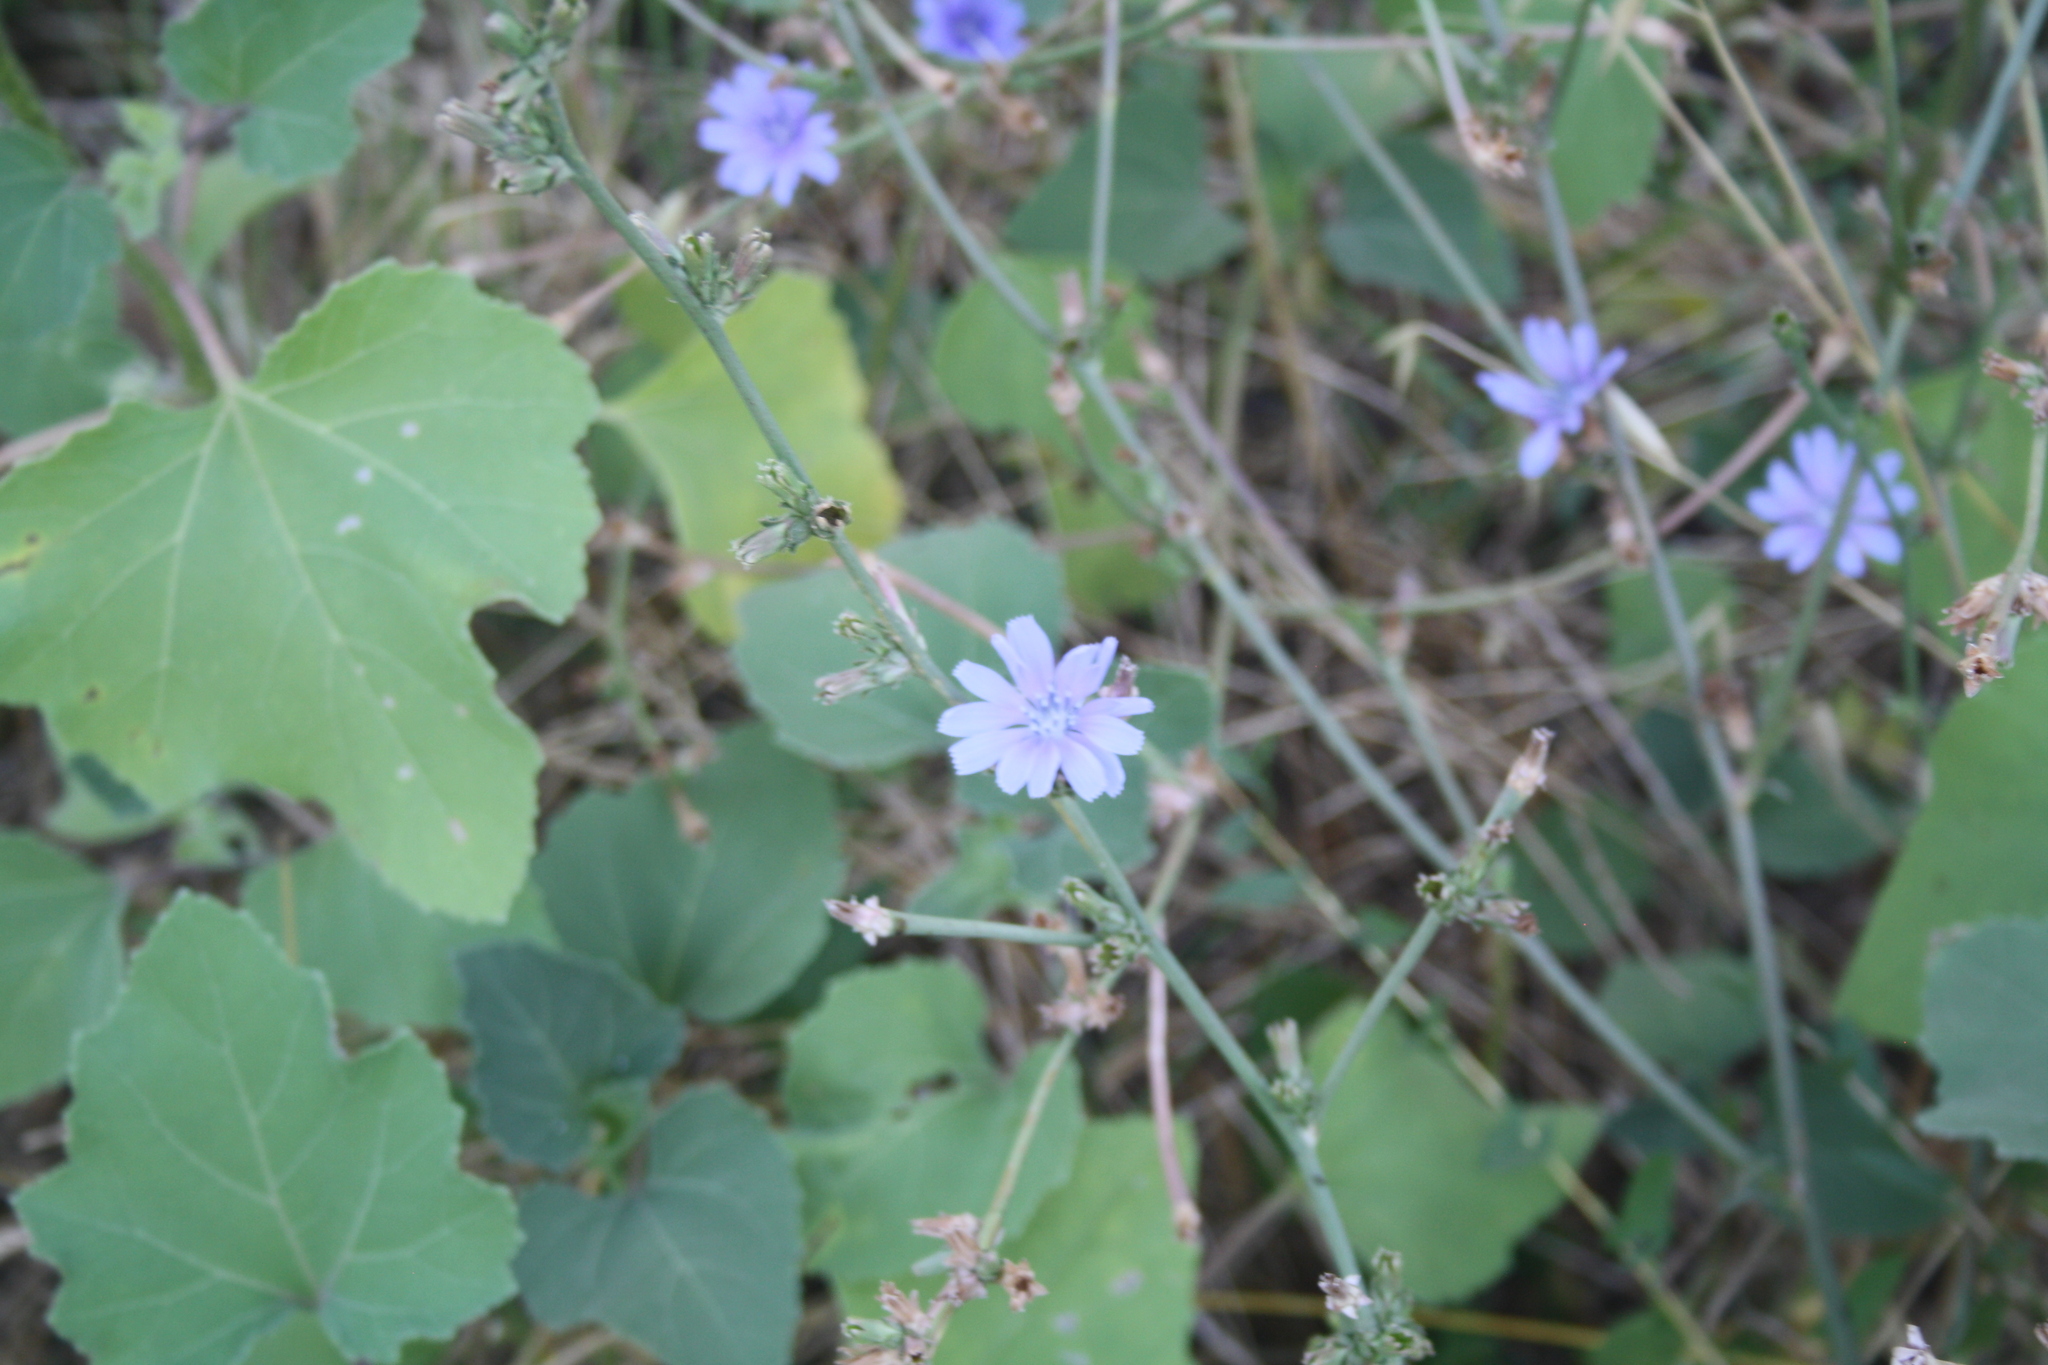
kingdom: Plantae
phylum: Tracheophyta
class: Magnoliopsida
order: Asterales
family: Asteraceae
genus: Cichorium
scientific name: Cichorium intybus
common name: Chicory
